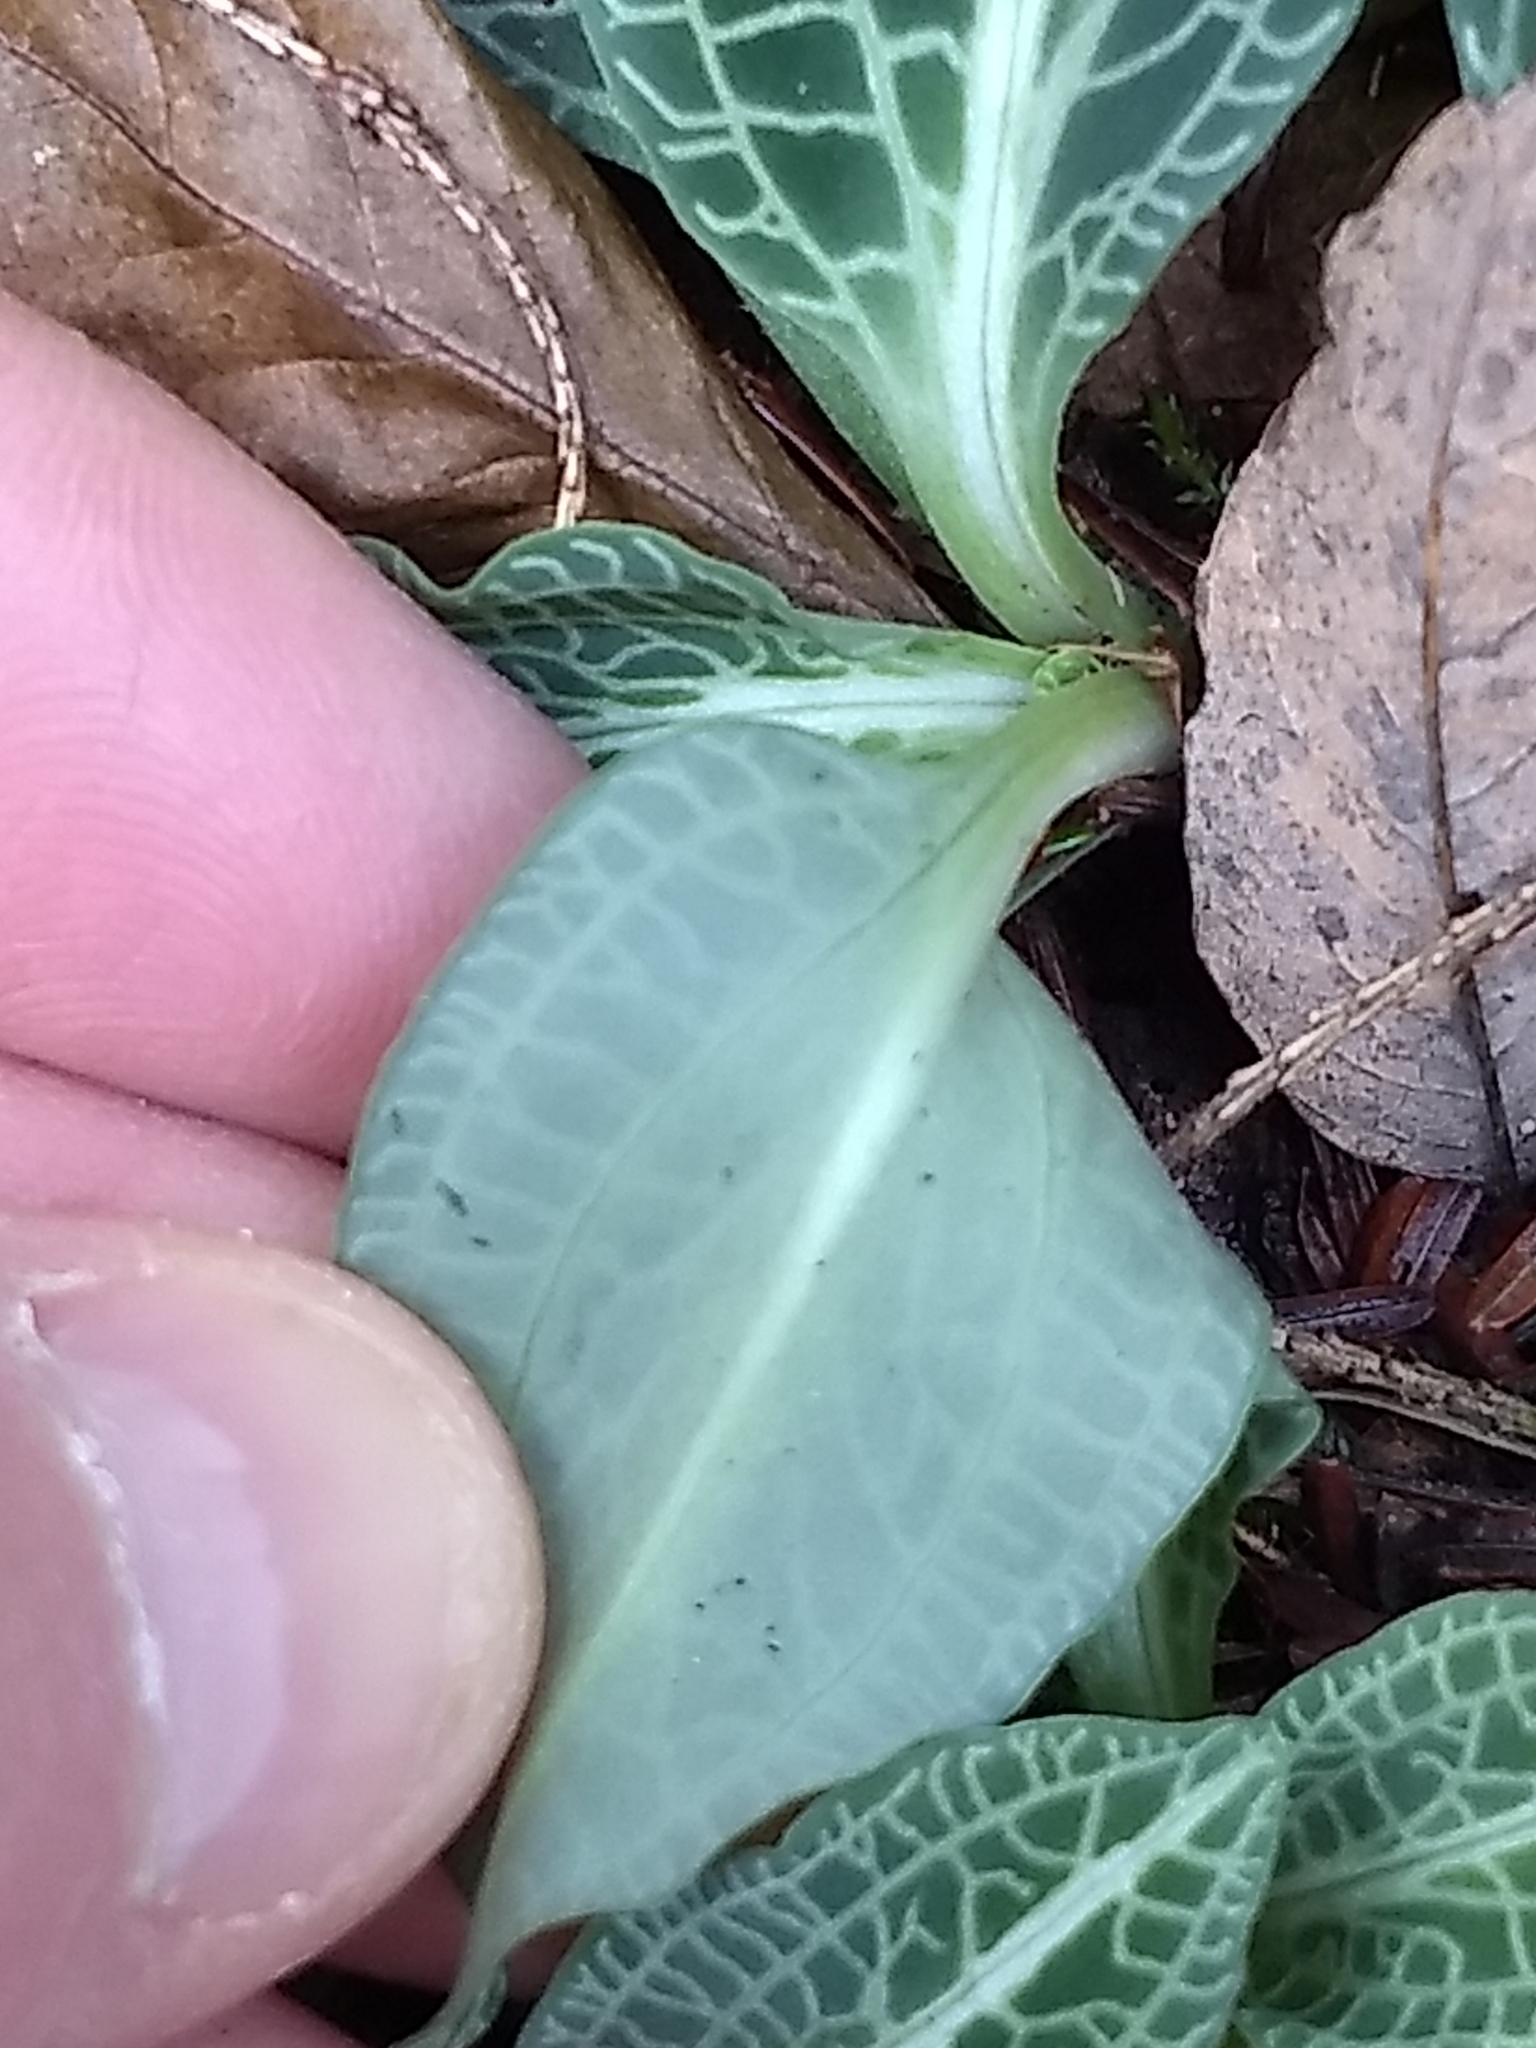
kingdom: Plantae
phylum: Tracheophyta
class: Liliopsida
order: Asparagales
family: Orchidaceae
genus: Goodyera
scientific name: Goodyera pubescens
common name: Downy rattlesnake-plantain
